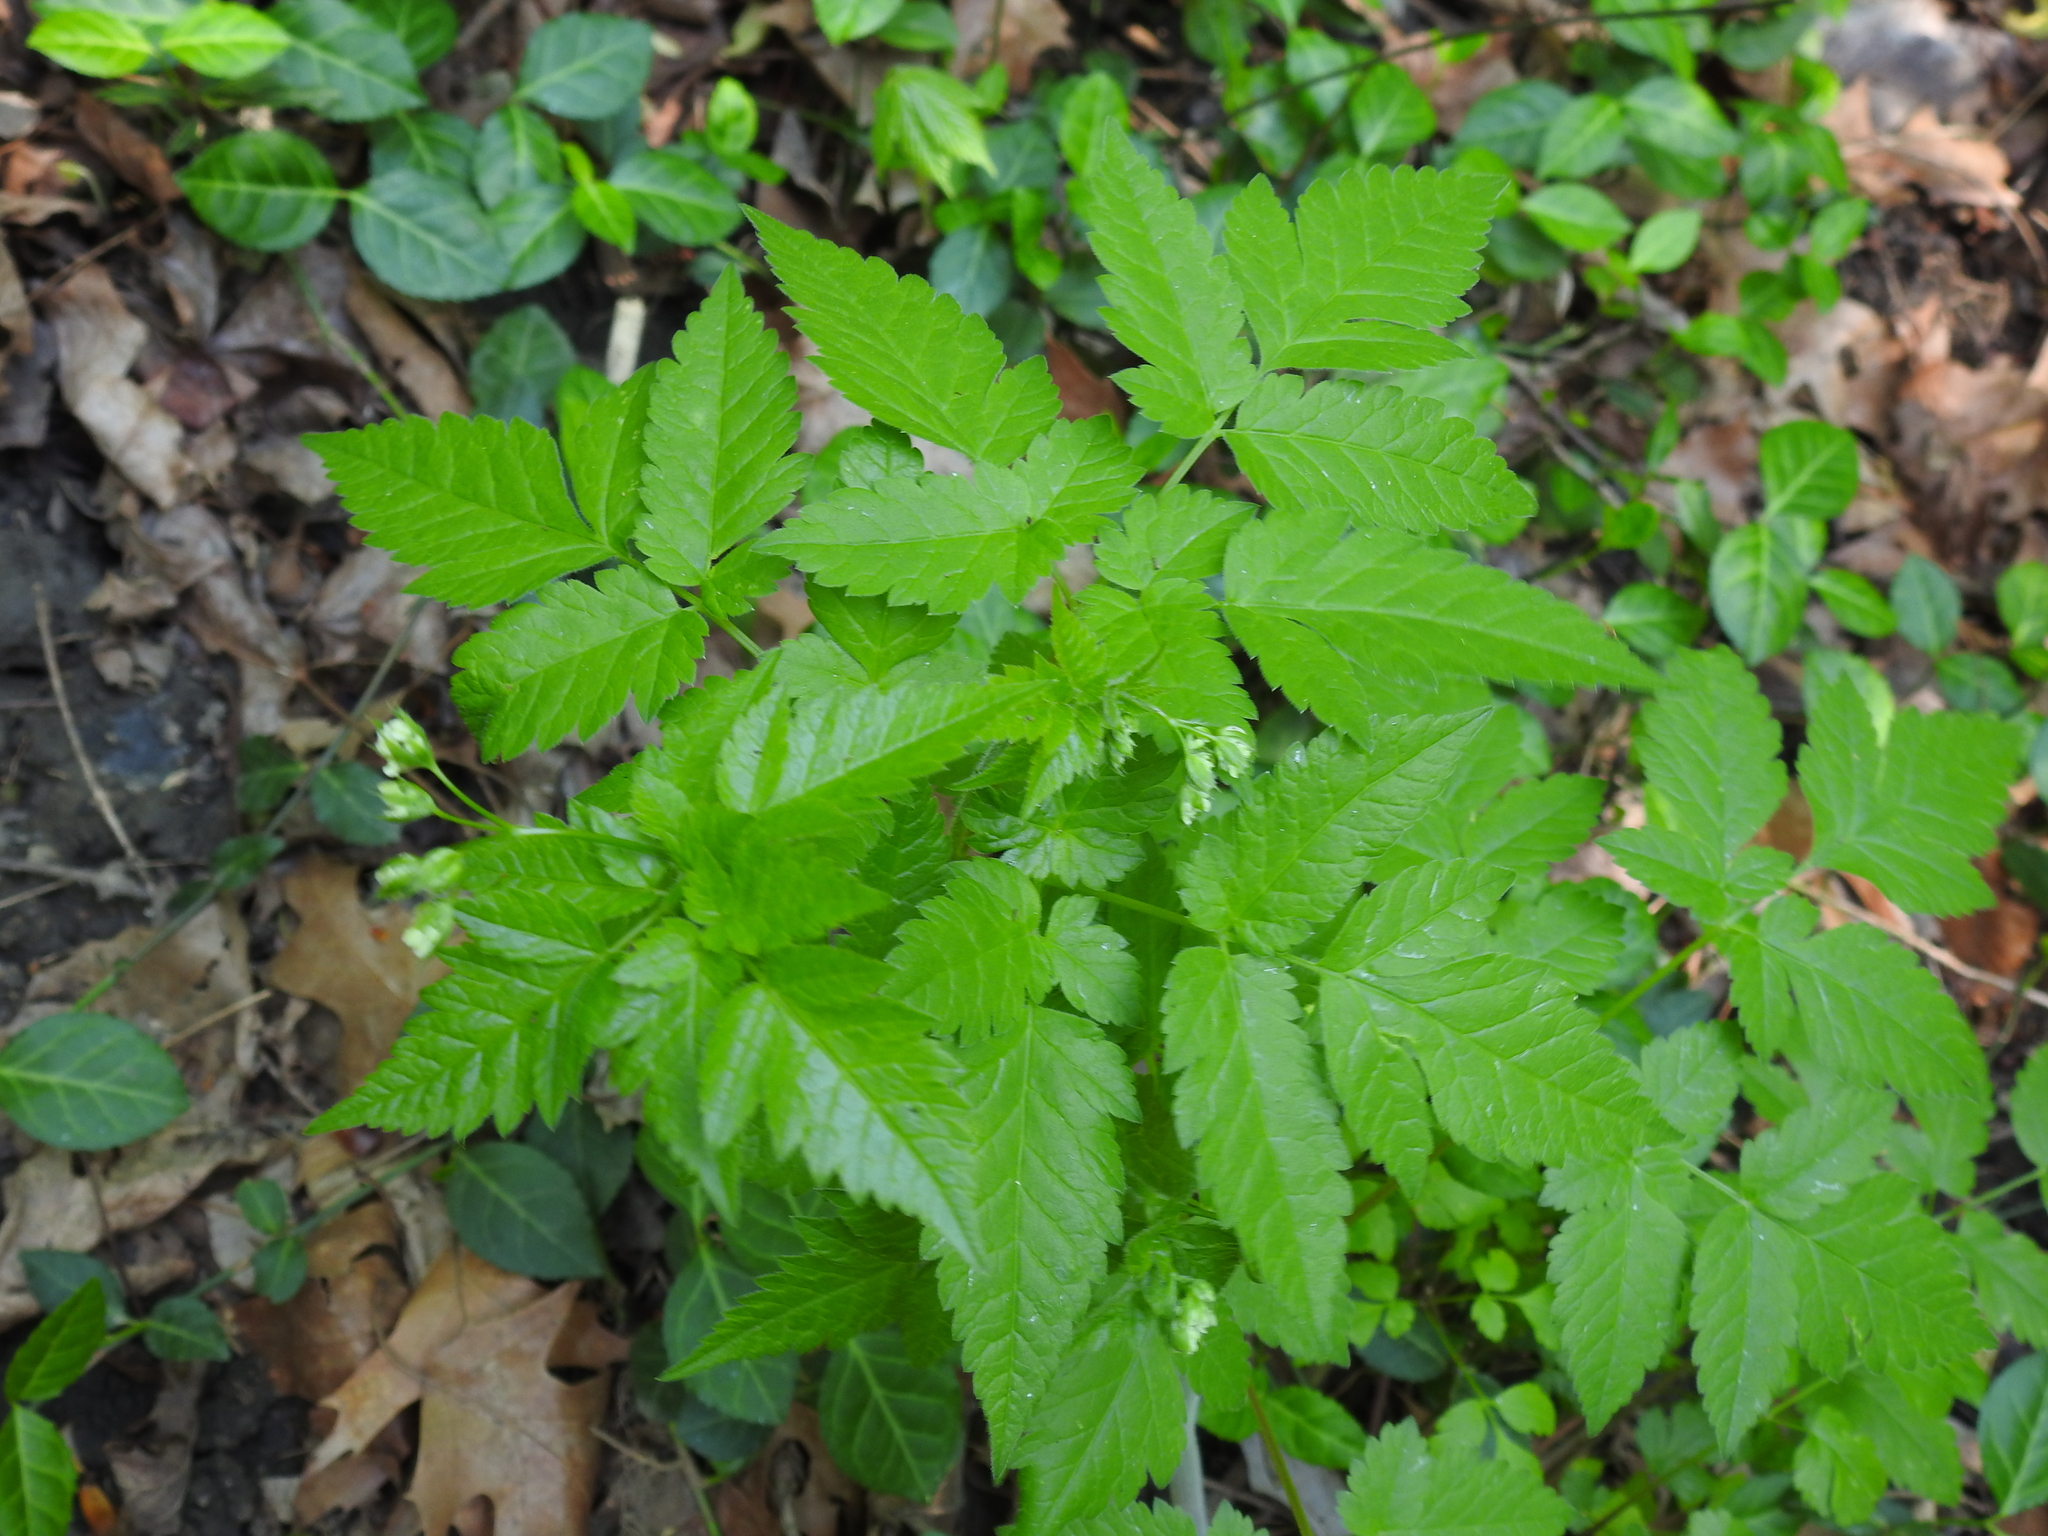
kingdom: Plantae
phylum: Tracheophyta
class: Magnoliopsida
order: Apiales
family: Apiaceae
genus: Osmorhiza
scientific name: Osmorhiza longistylis
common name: Smooth sweet cicely
